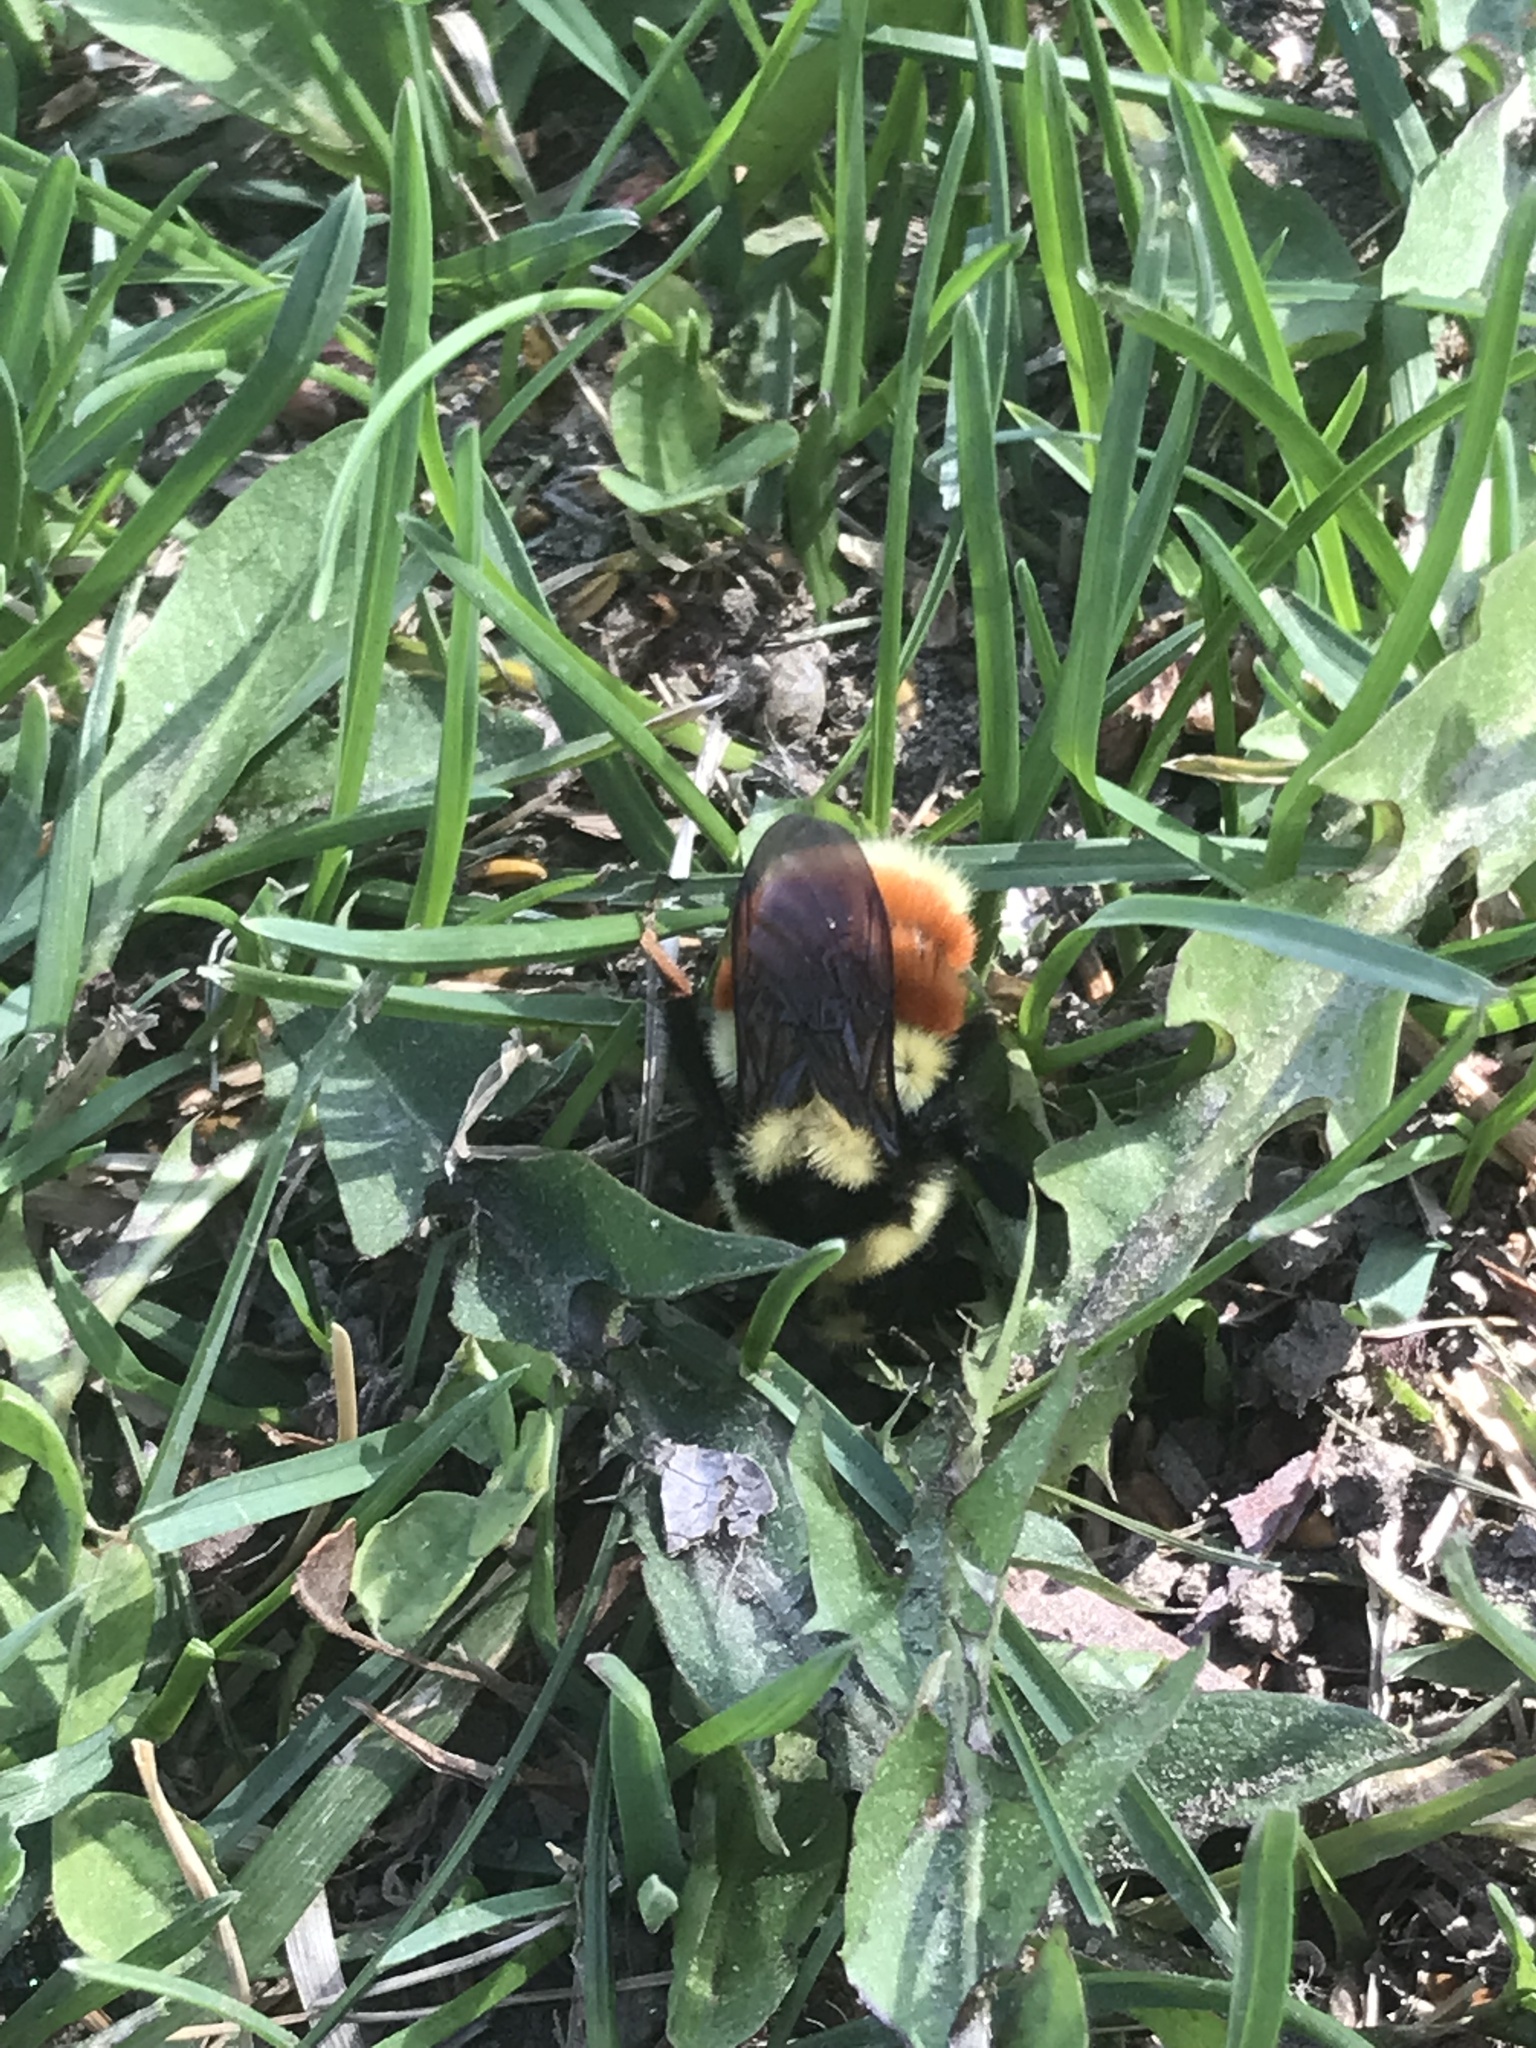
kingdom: Animalia
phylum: Arthropoda
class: Insecta
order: Hymenoptera
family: Apidae
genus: Bombus
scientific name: Bombus huntii
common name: Hunt bumble bee
